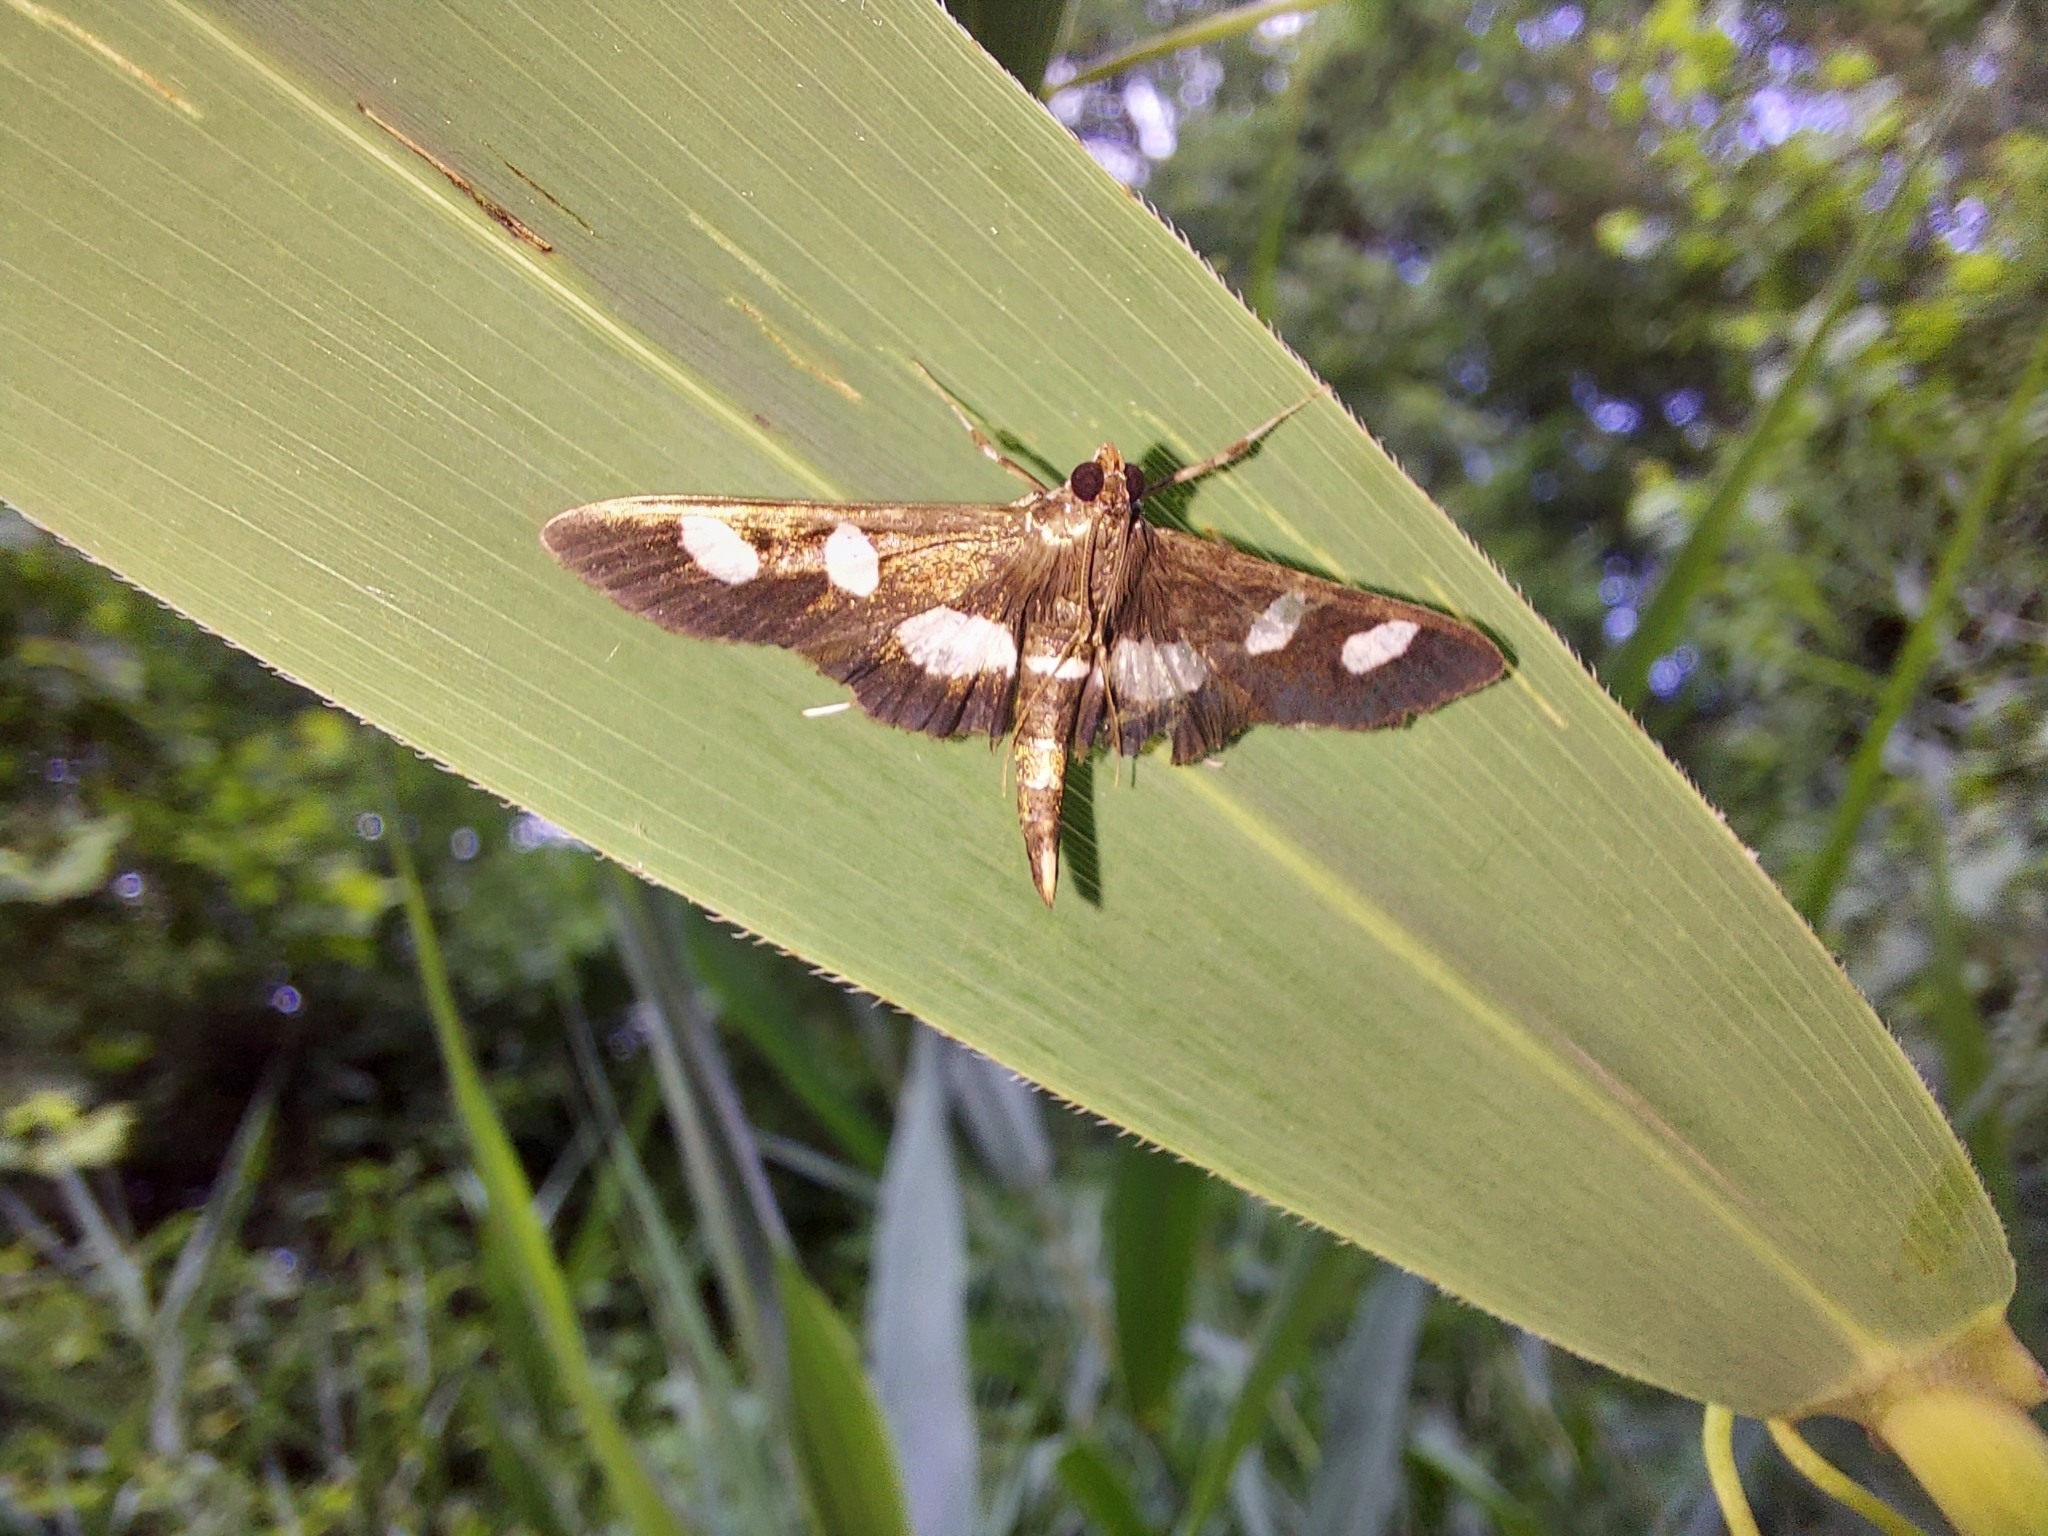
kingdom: Animalia
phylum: Arthropoda
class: Insecta
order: Lepidoptera
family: Crambidae
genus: Desmia
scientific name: Desmia
